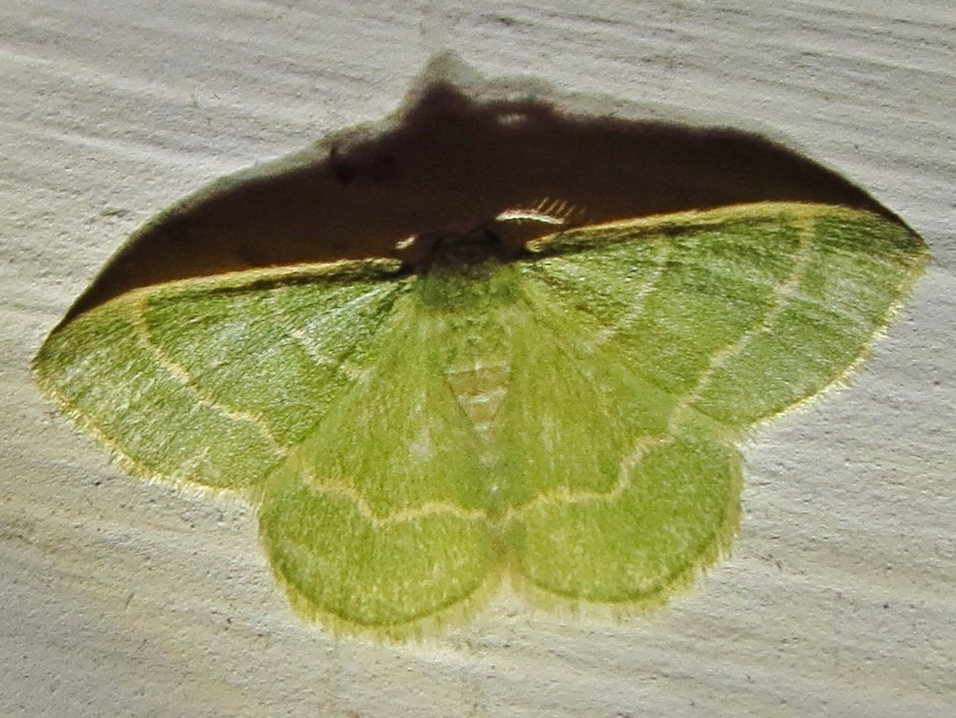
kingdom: Animalia
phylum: Arthropoda
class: Insecta
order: Lepidoptera
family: Geometridae
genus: Chlorochlamys
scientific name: Chlorochlamys phyllinaria
